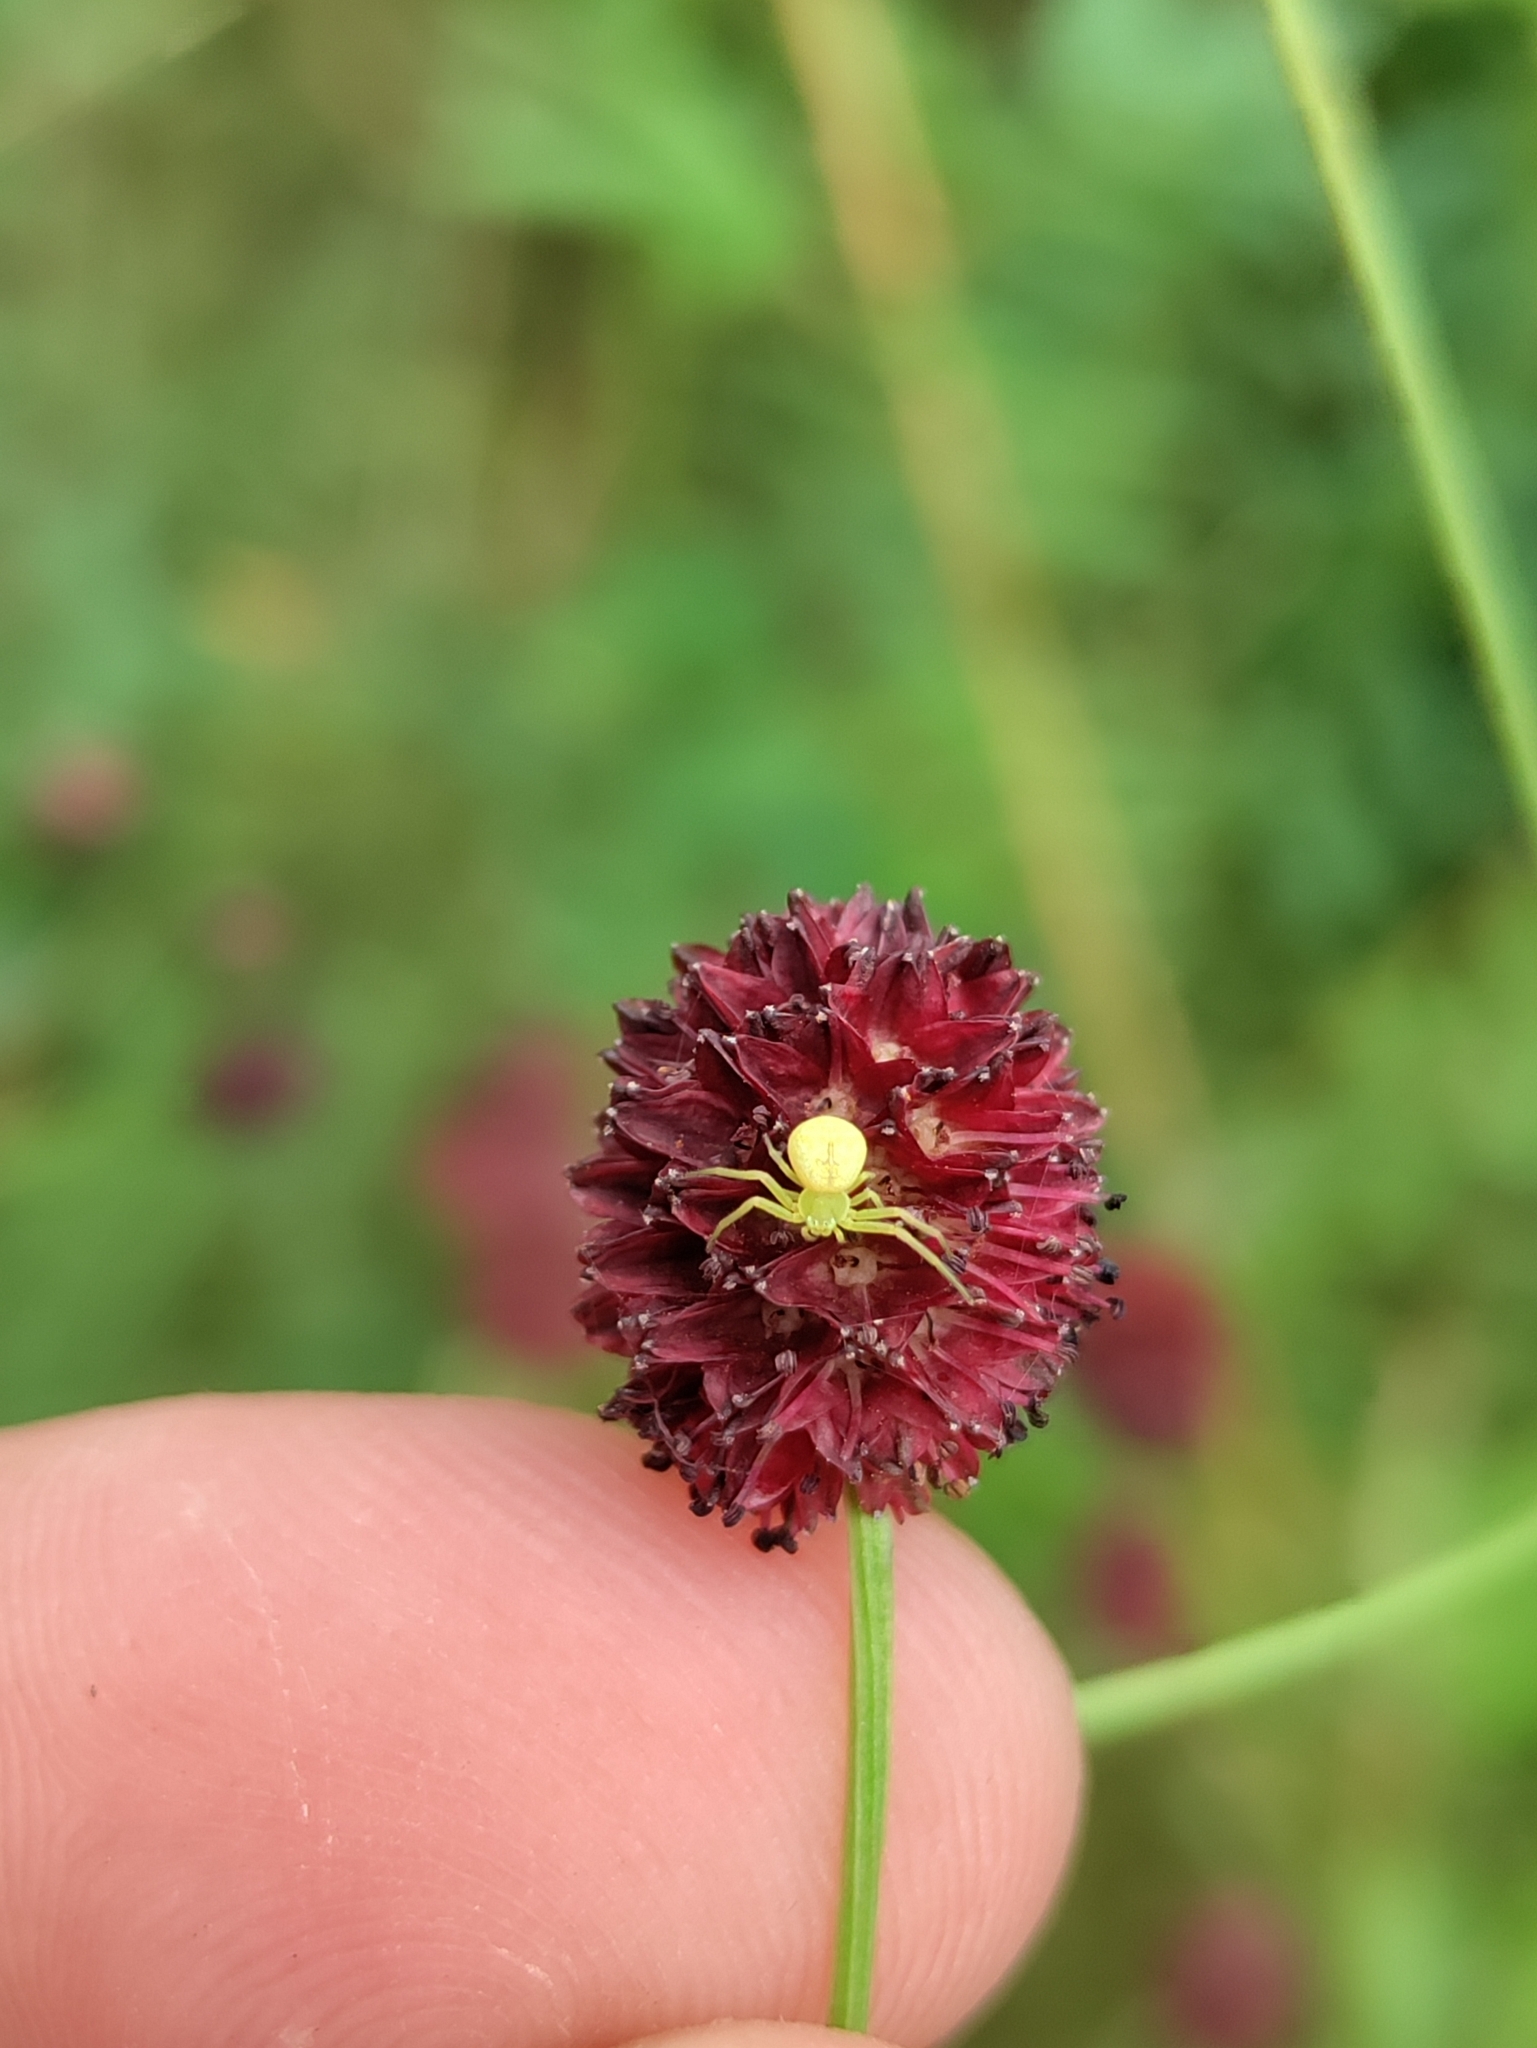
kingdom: Animalia
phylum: Arthropoda
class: Arachnida
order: Araneae
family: Thomisidae
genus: Ebrechtella
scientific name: Ebrechtella tricuspidata
